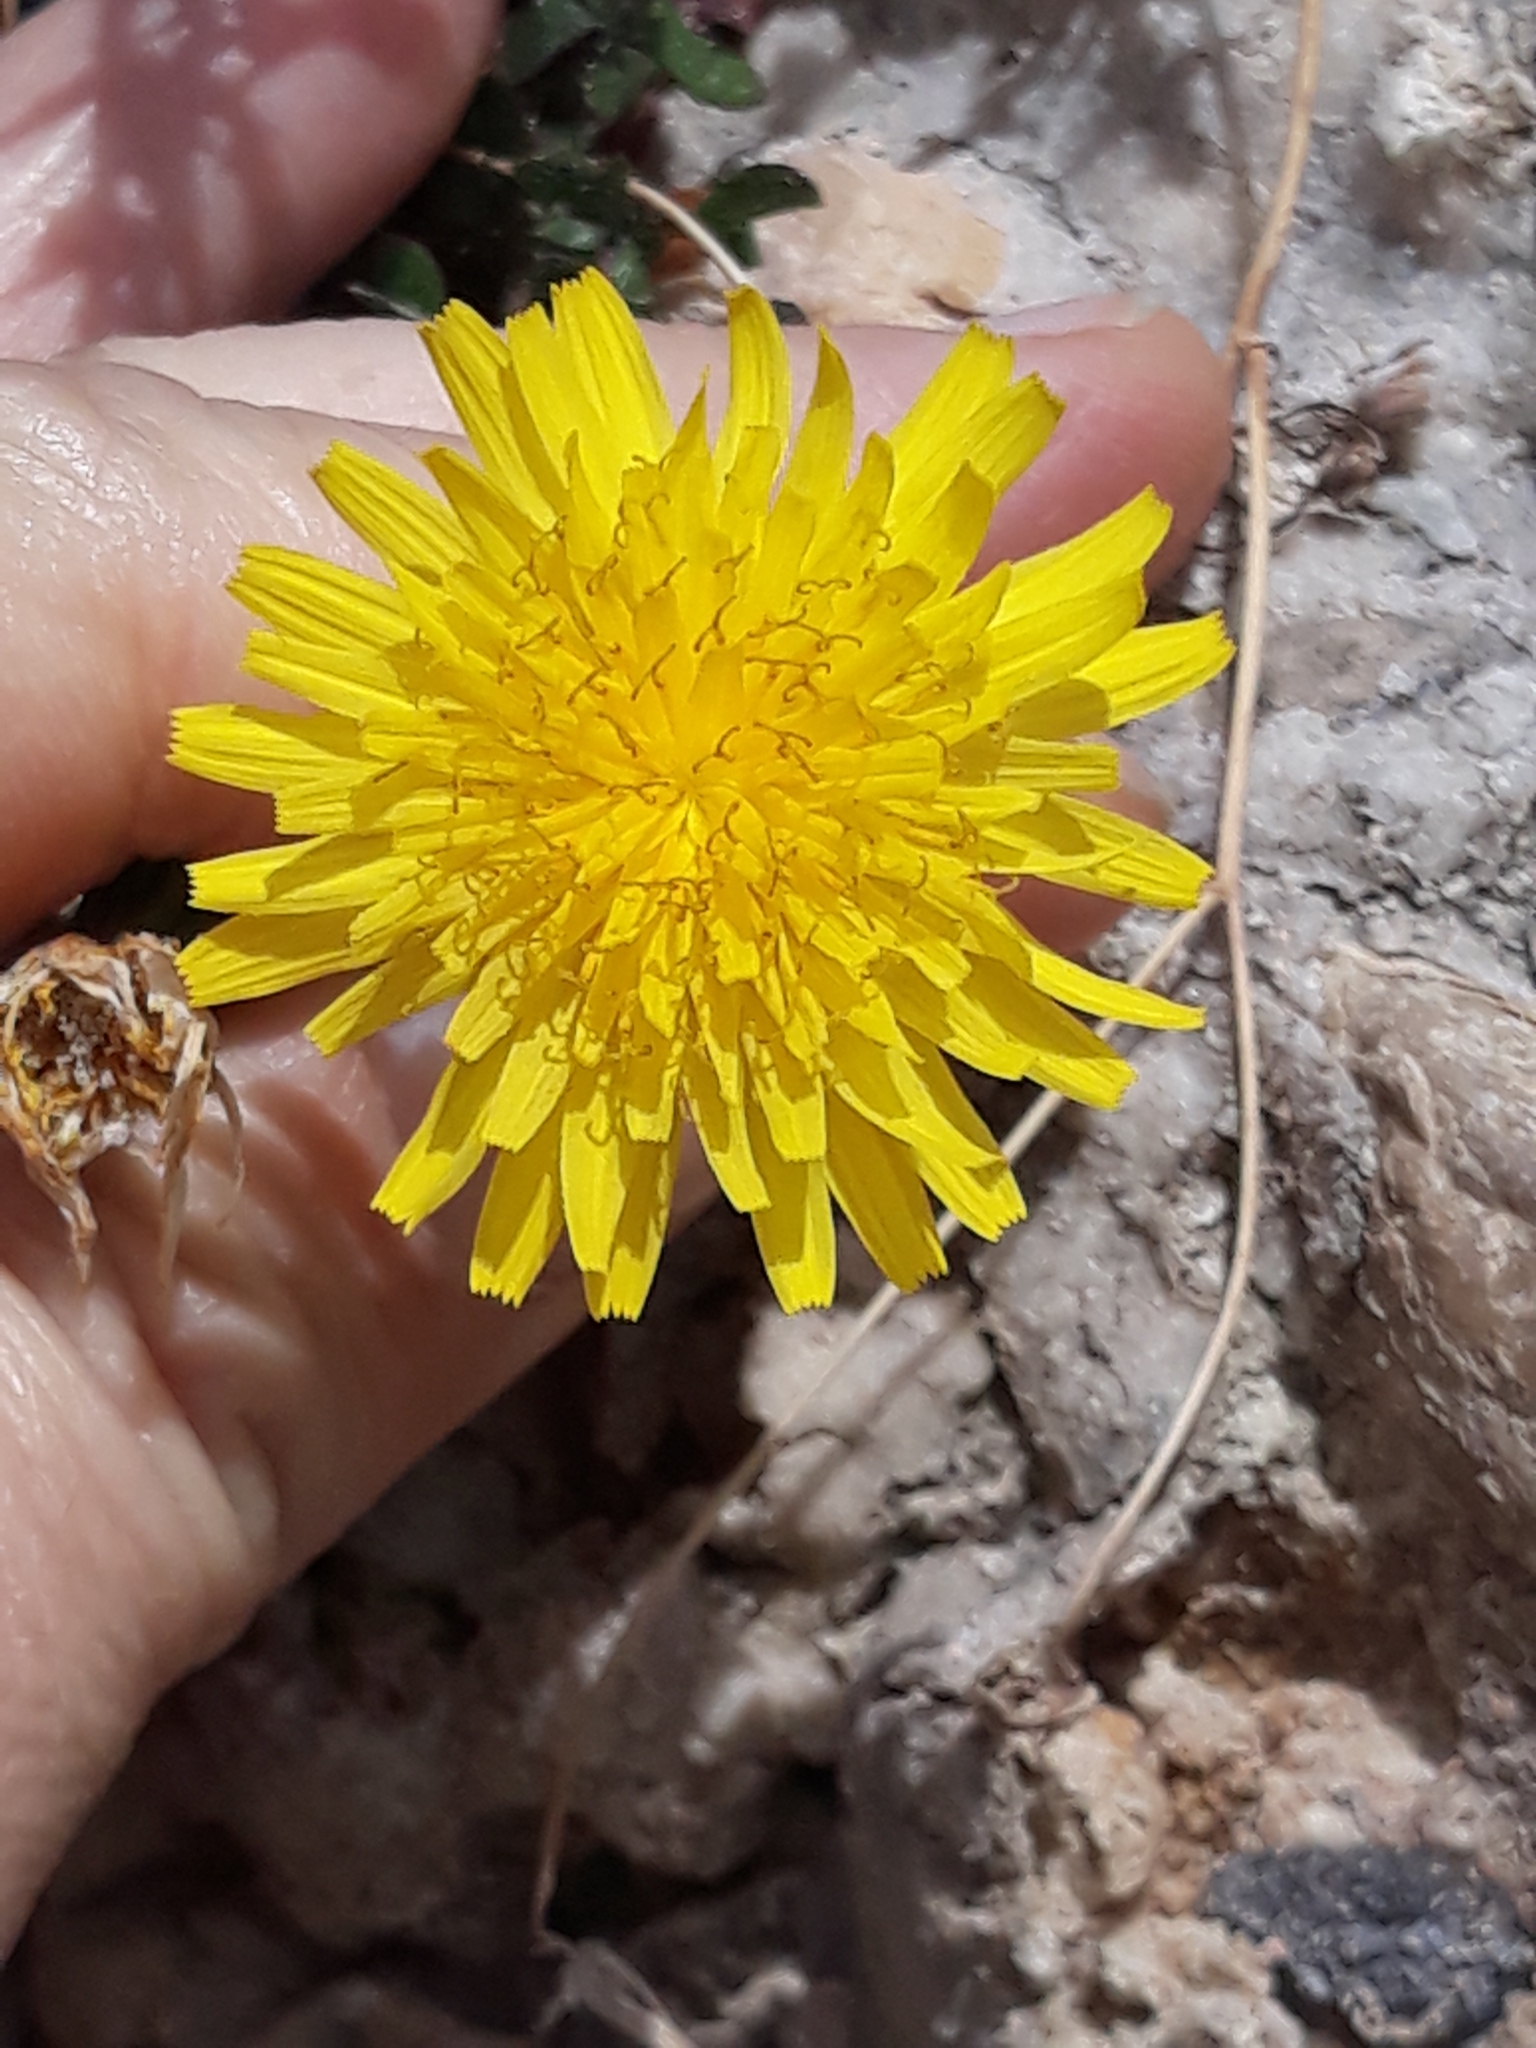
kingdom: Plantae
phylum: Tracheophyta
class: Magnoliopsida
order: Asterales
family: Asteraceae
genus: Sonchus
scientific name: Sonchus tenerrimus
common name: Clammy sowthistle
